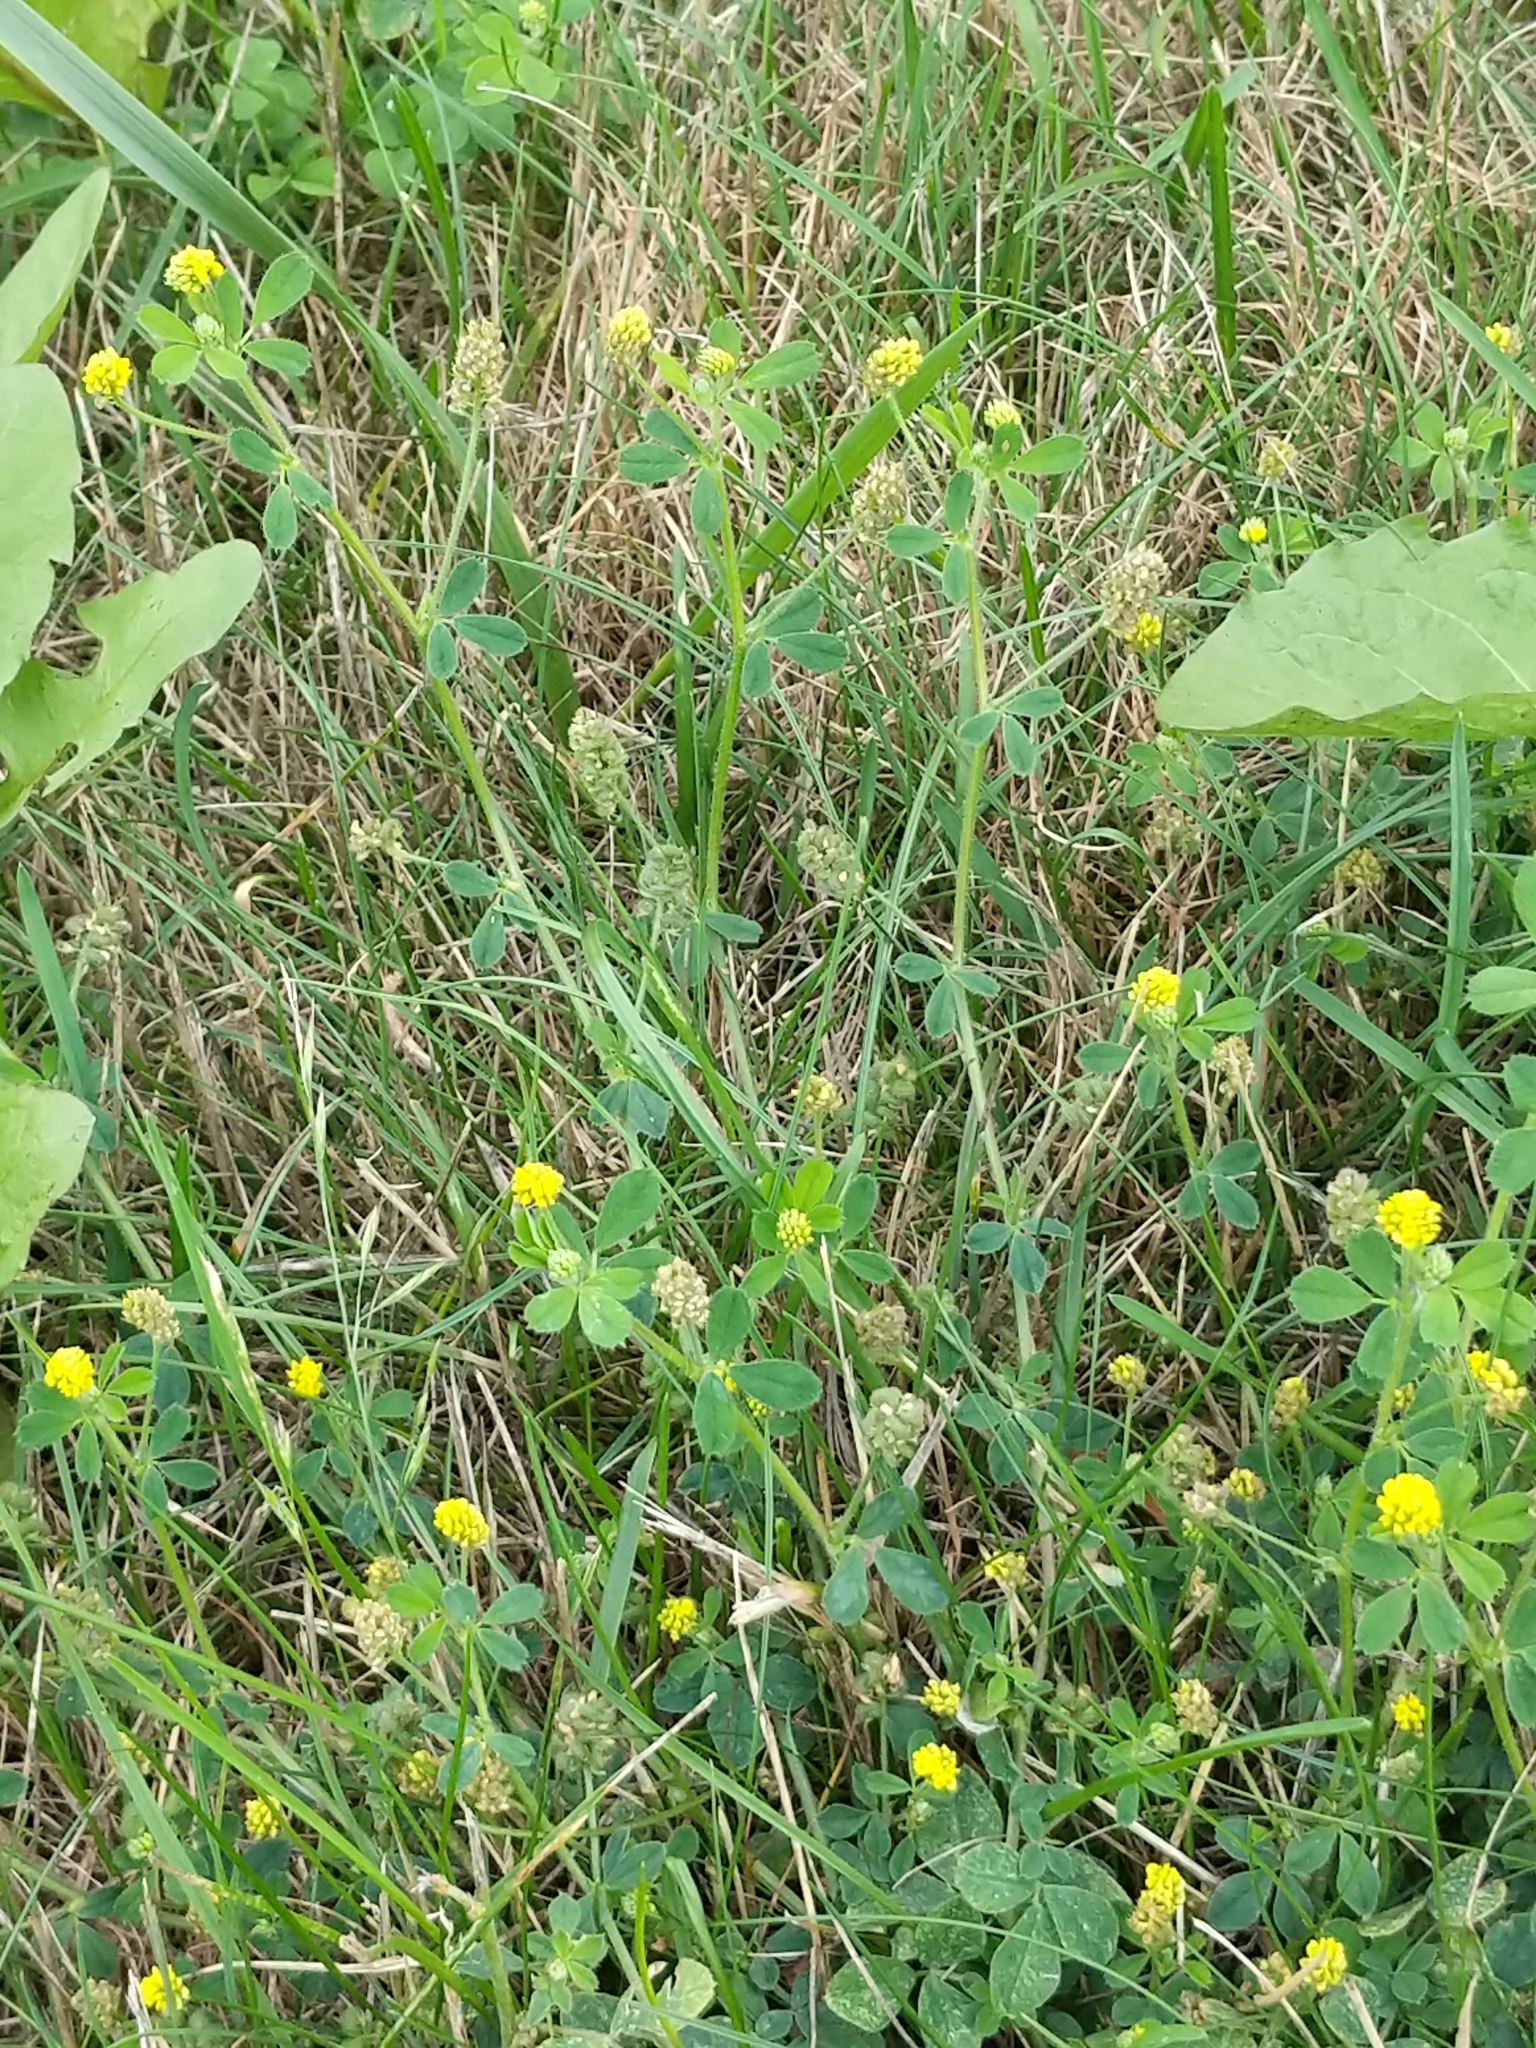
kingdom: Plantae
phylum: Tracheophyta
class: Magnoliopsida
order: Fabales
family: Fabaceae
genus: Medicago
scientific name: Medicago lupulina
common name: Black medick
